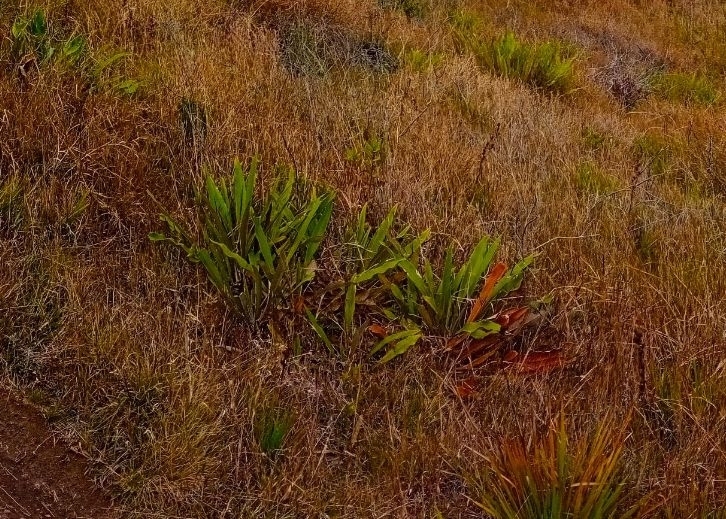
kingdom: Plantae
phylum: Tracheophyta
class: Magnoliopsida
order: Asterales
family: Asteraceae
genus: Espeletia
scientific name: Espeletia bracteosa
